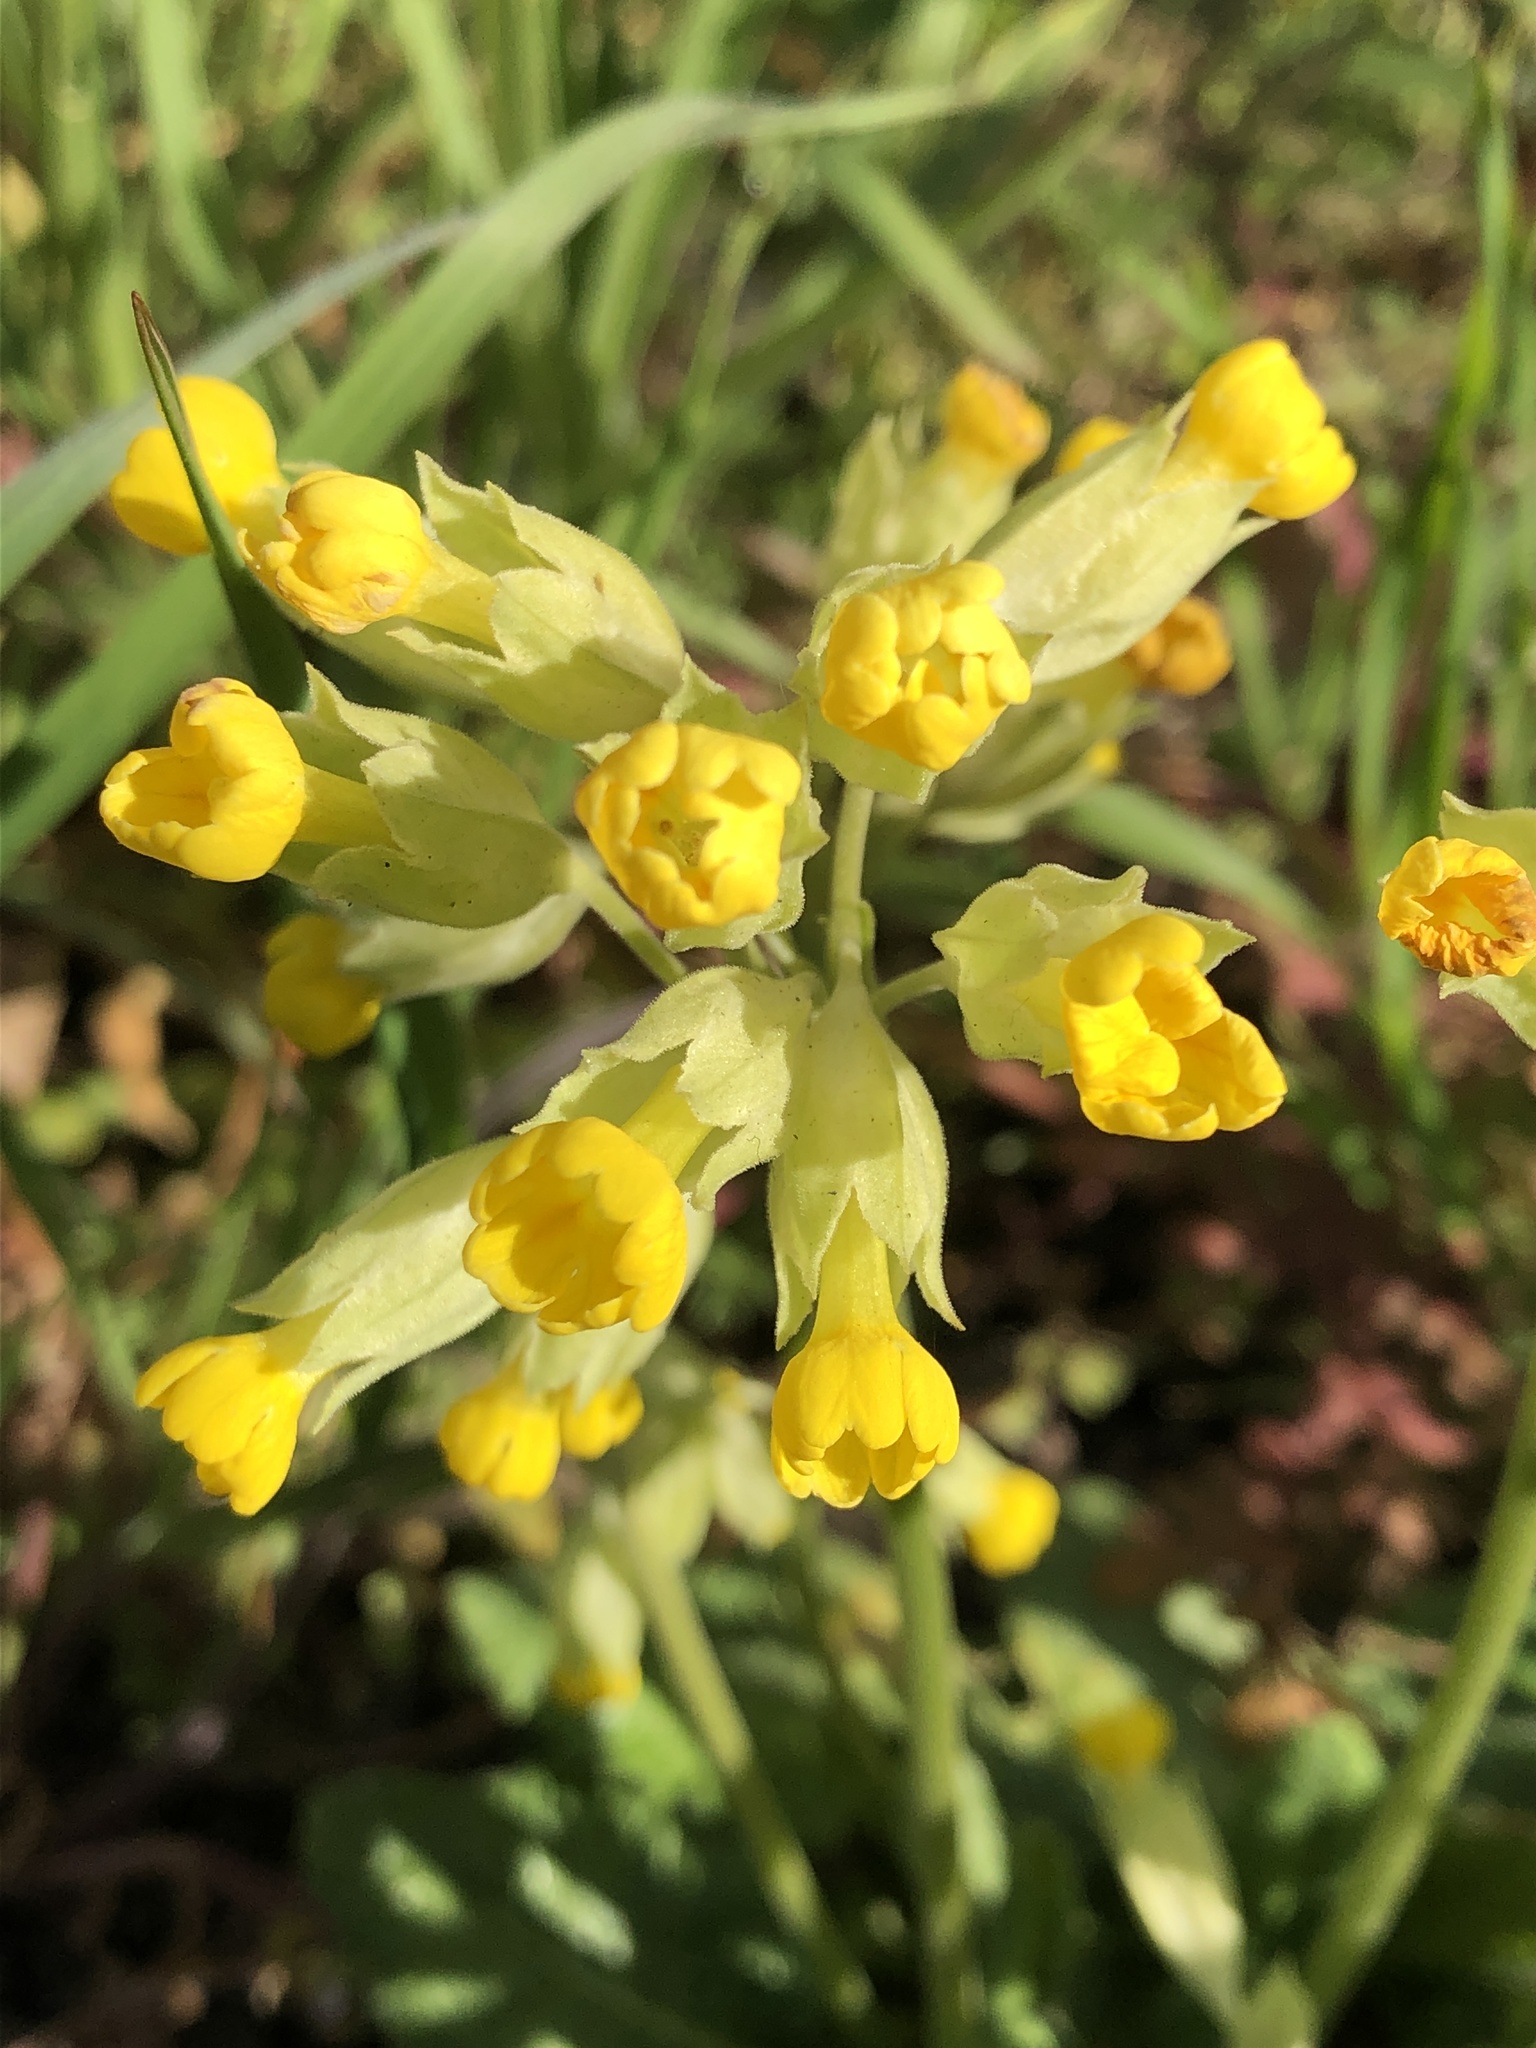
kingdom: Plantae
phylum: Tracheophyta
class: Magnoliopsida
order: Ericales
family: Primulaceae
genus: Primula
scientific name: Primula veris
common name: Cowslip
